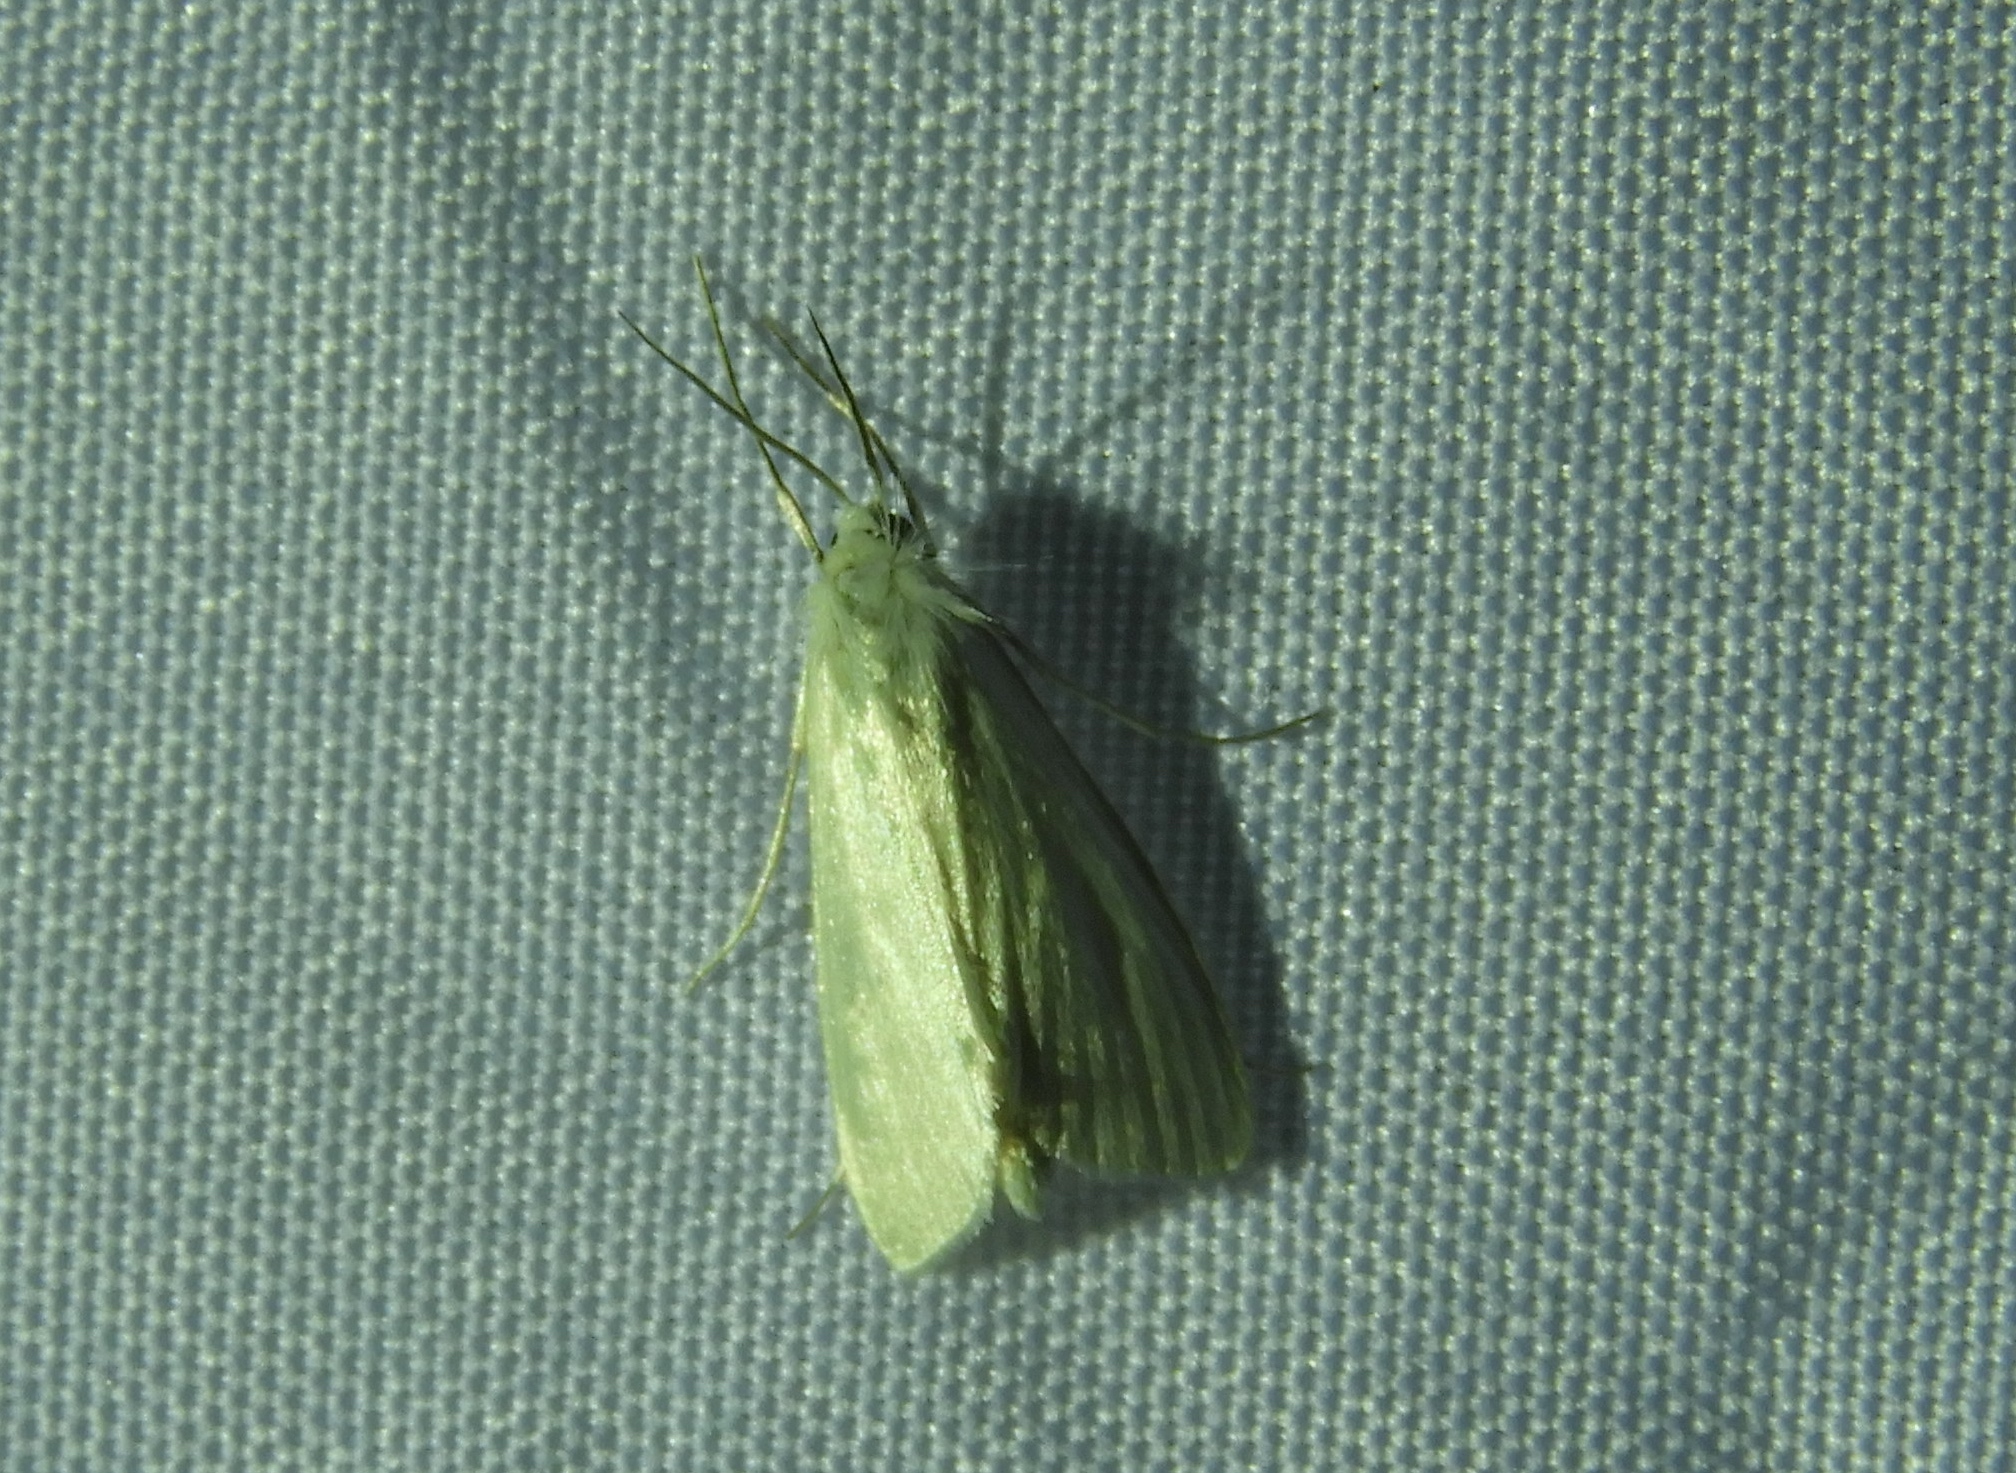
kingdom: Animalia
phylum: Arthropoda
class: Insecta
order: Lepidoptera
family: Crambidae
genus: Rupela
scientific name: Rupela
